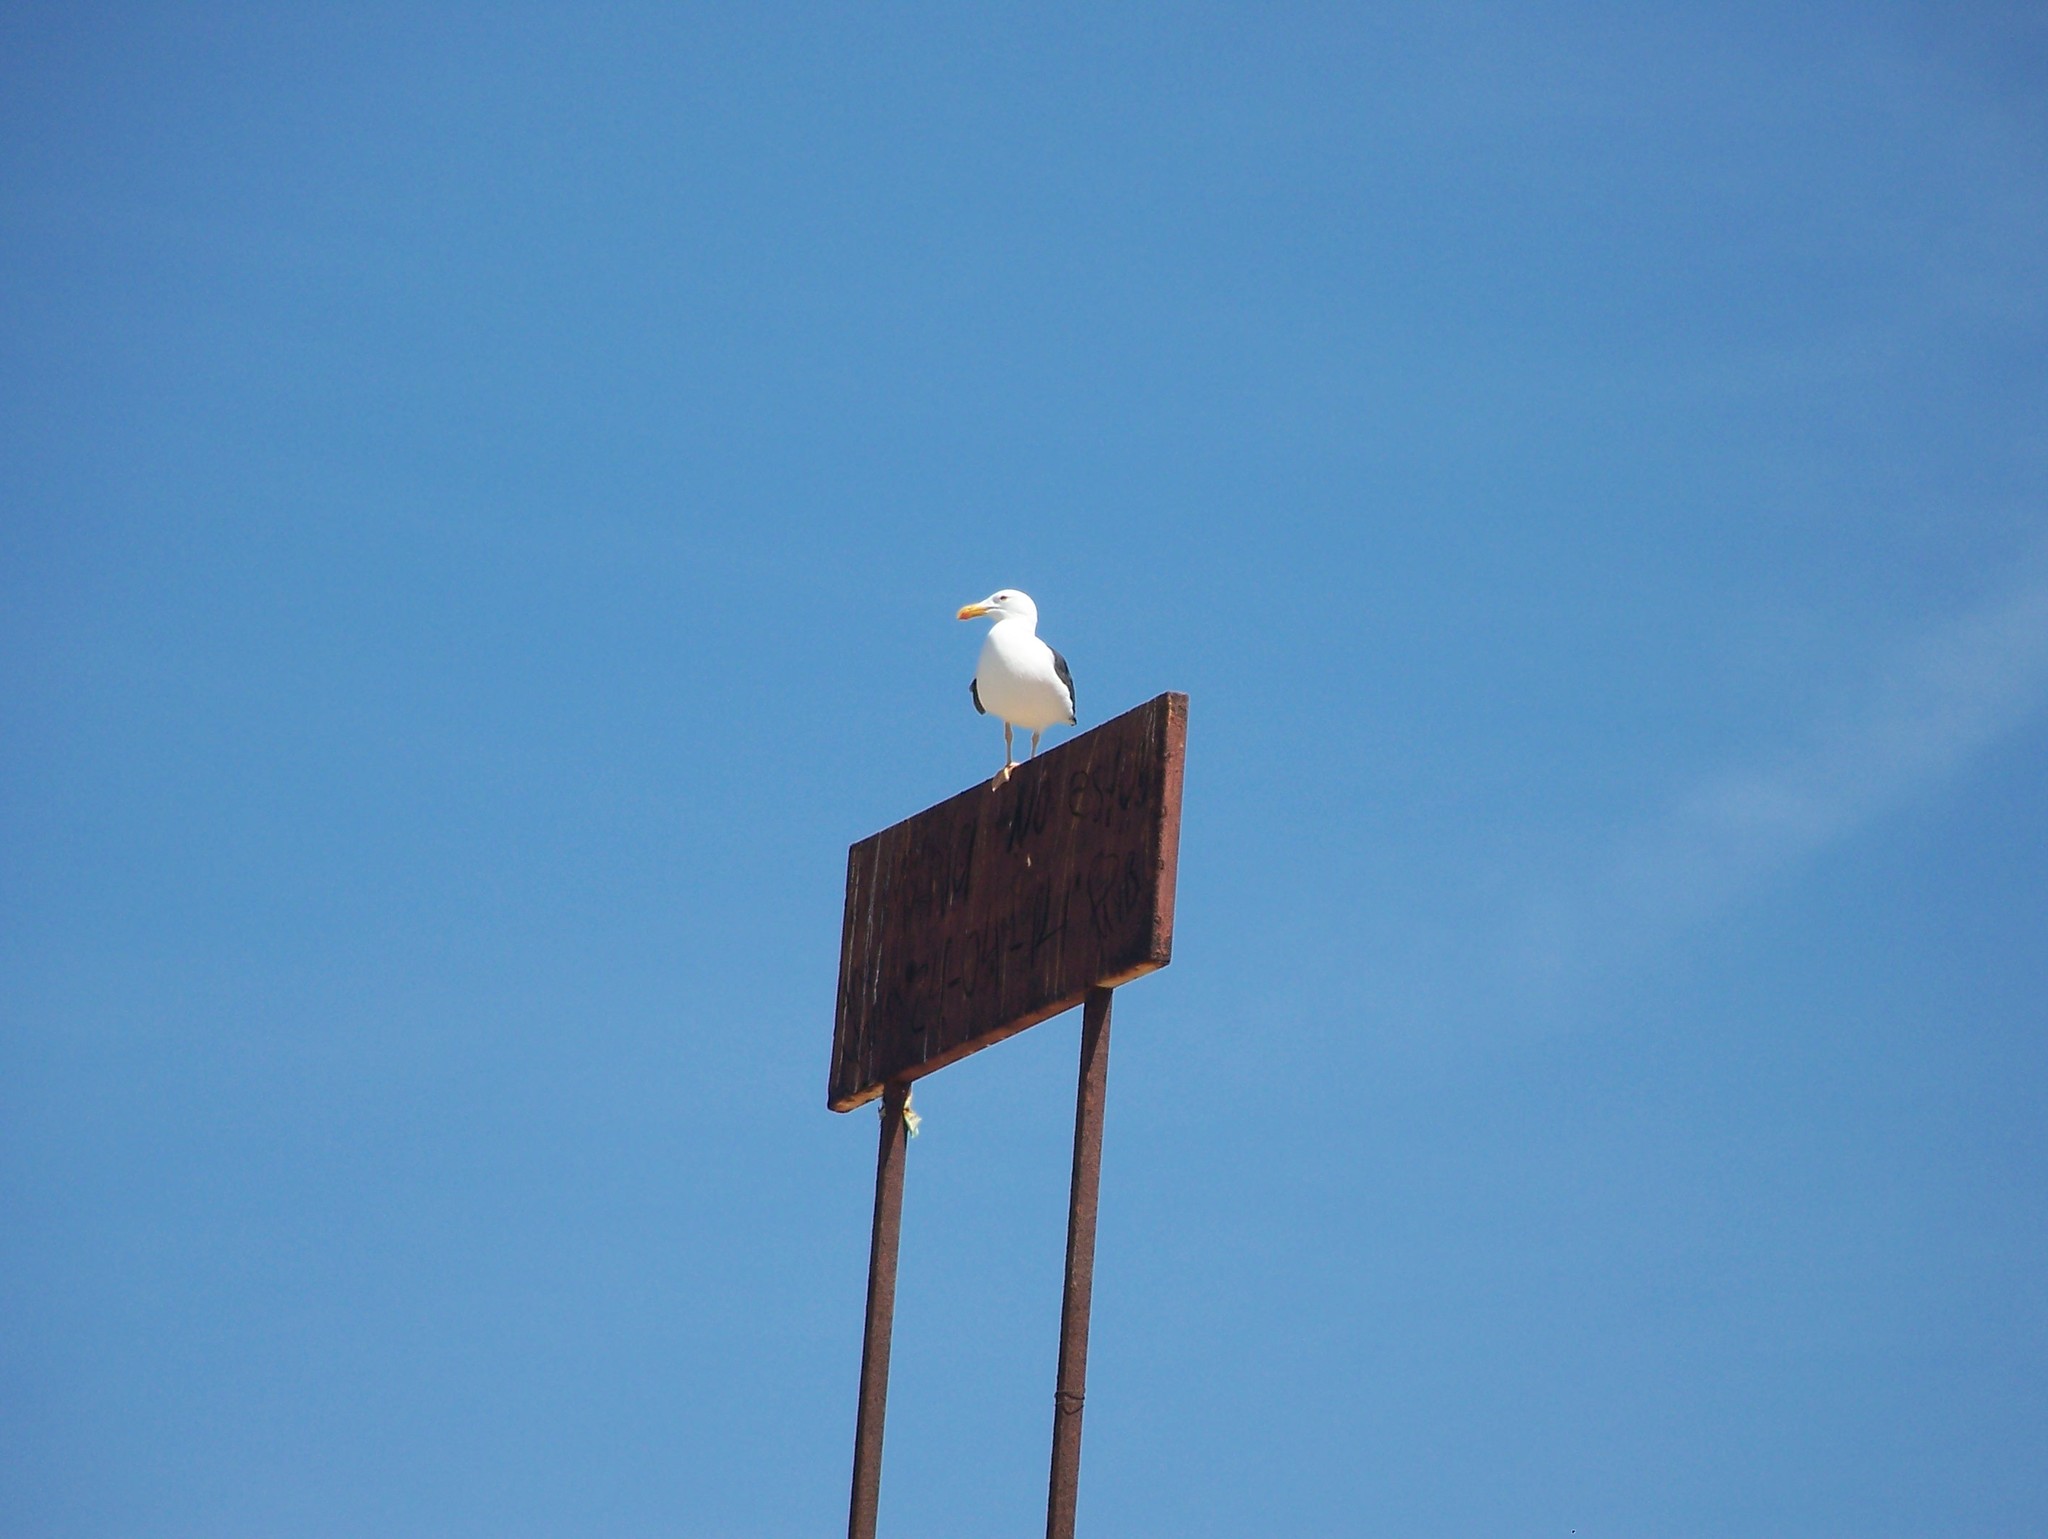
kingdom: Animalia
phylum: Chordata
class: Aves
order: Charadriiformes
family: Laridae
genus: Larus
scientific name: Larus livens
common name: Yellow-footed gull
